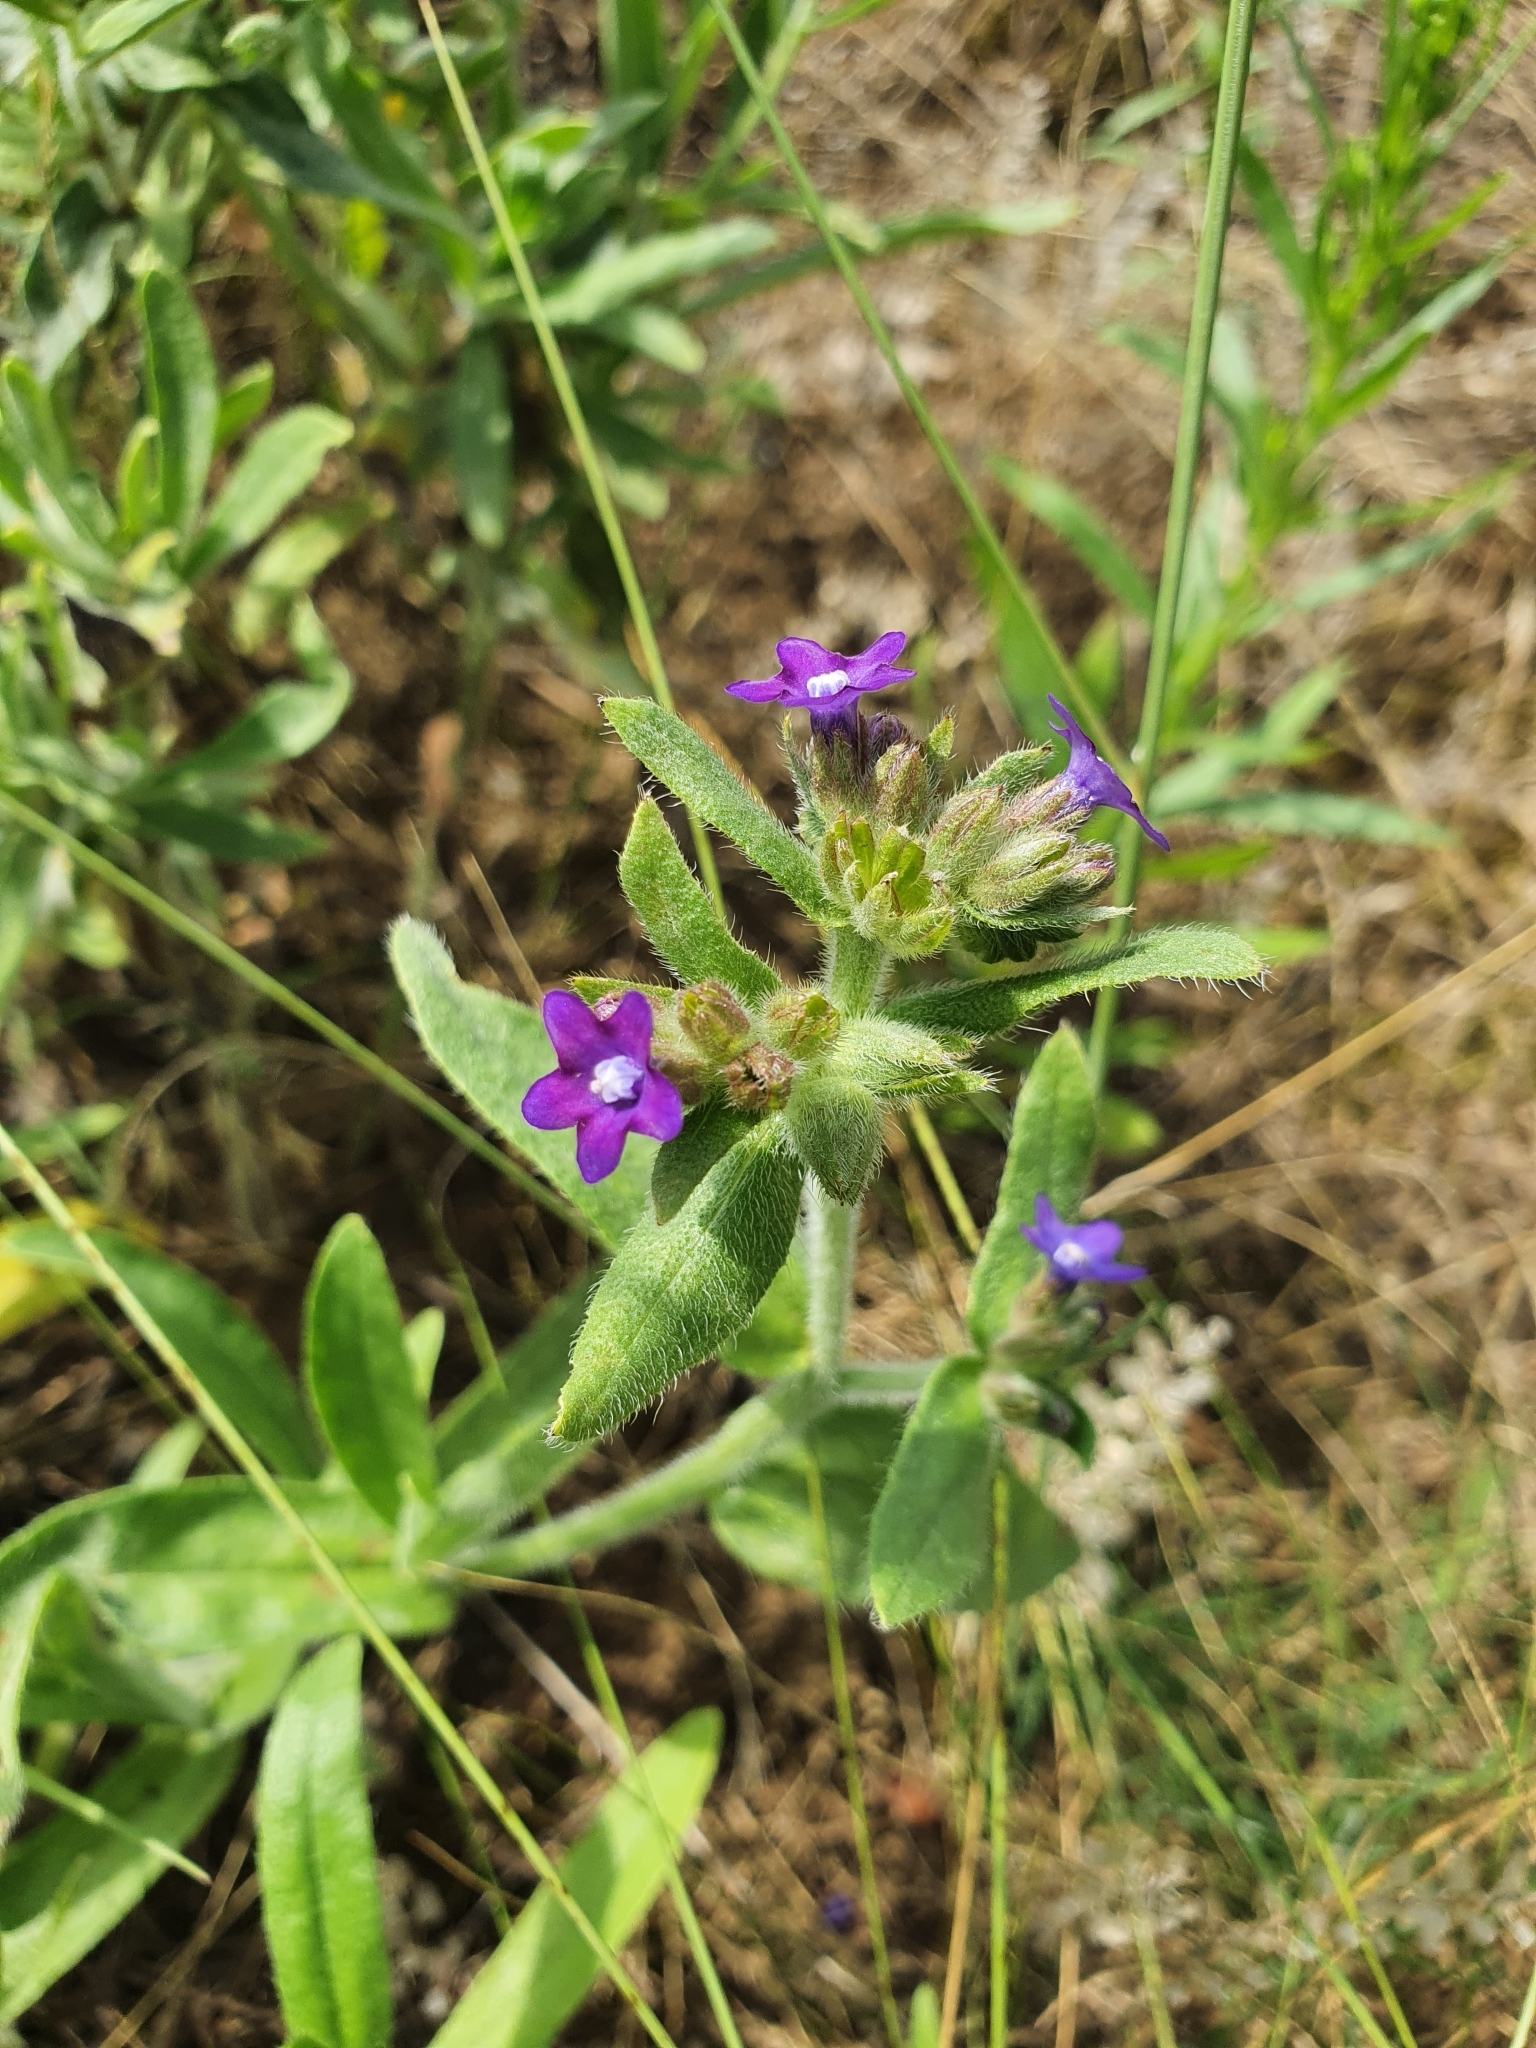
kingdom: Plantae
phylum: Tracheophyta
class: Magnoliopsida
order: Boraginales
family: Boraginaceae
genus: Anchusa
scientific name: Anchusa officinalis
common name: Alkanet
